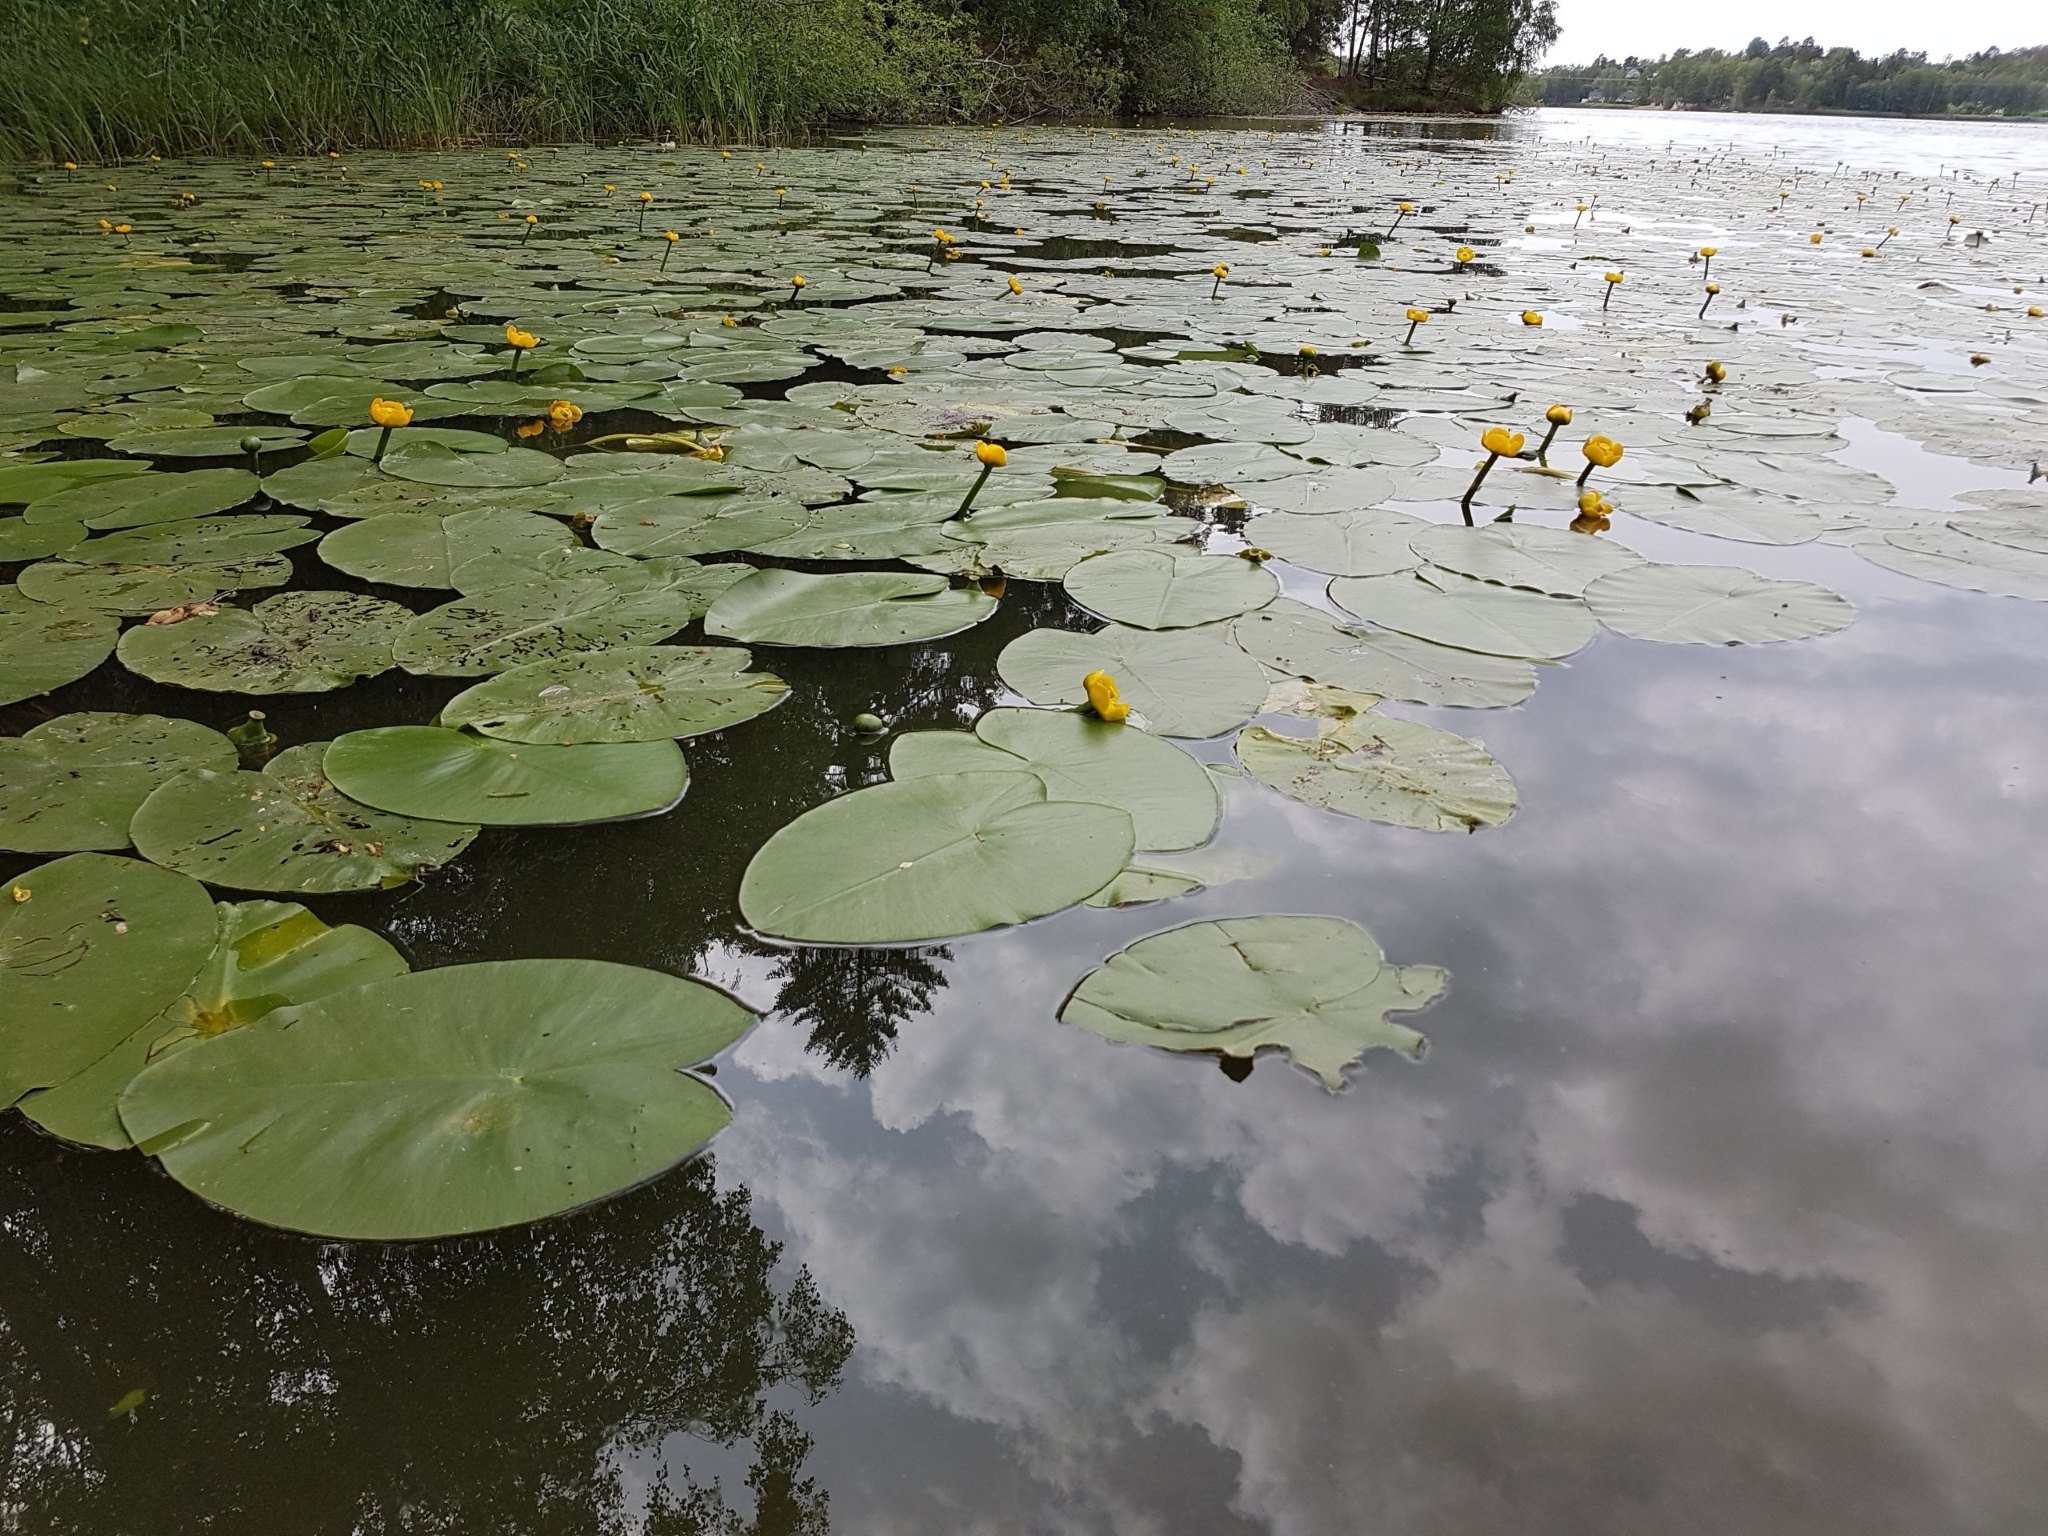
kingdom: Plantae
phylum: Tracheophyta
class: Magnoliopsida
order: Nymphaeales
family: Nymphaeaceae
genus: Nuphar
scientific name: Nuphar lutea
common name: Yellow water-lily
